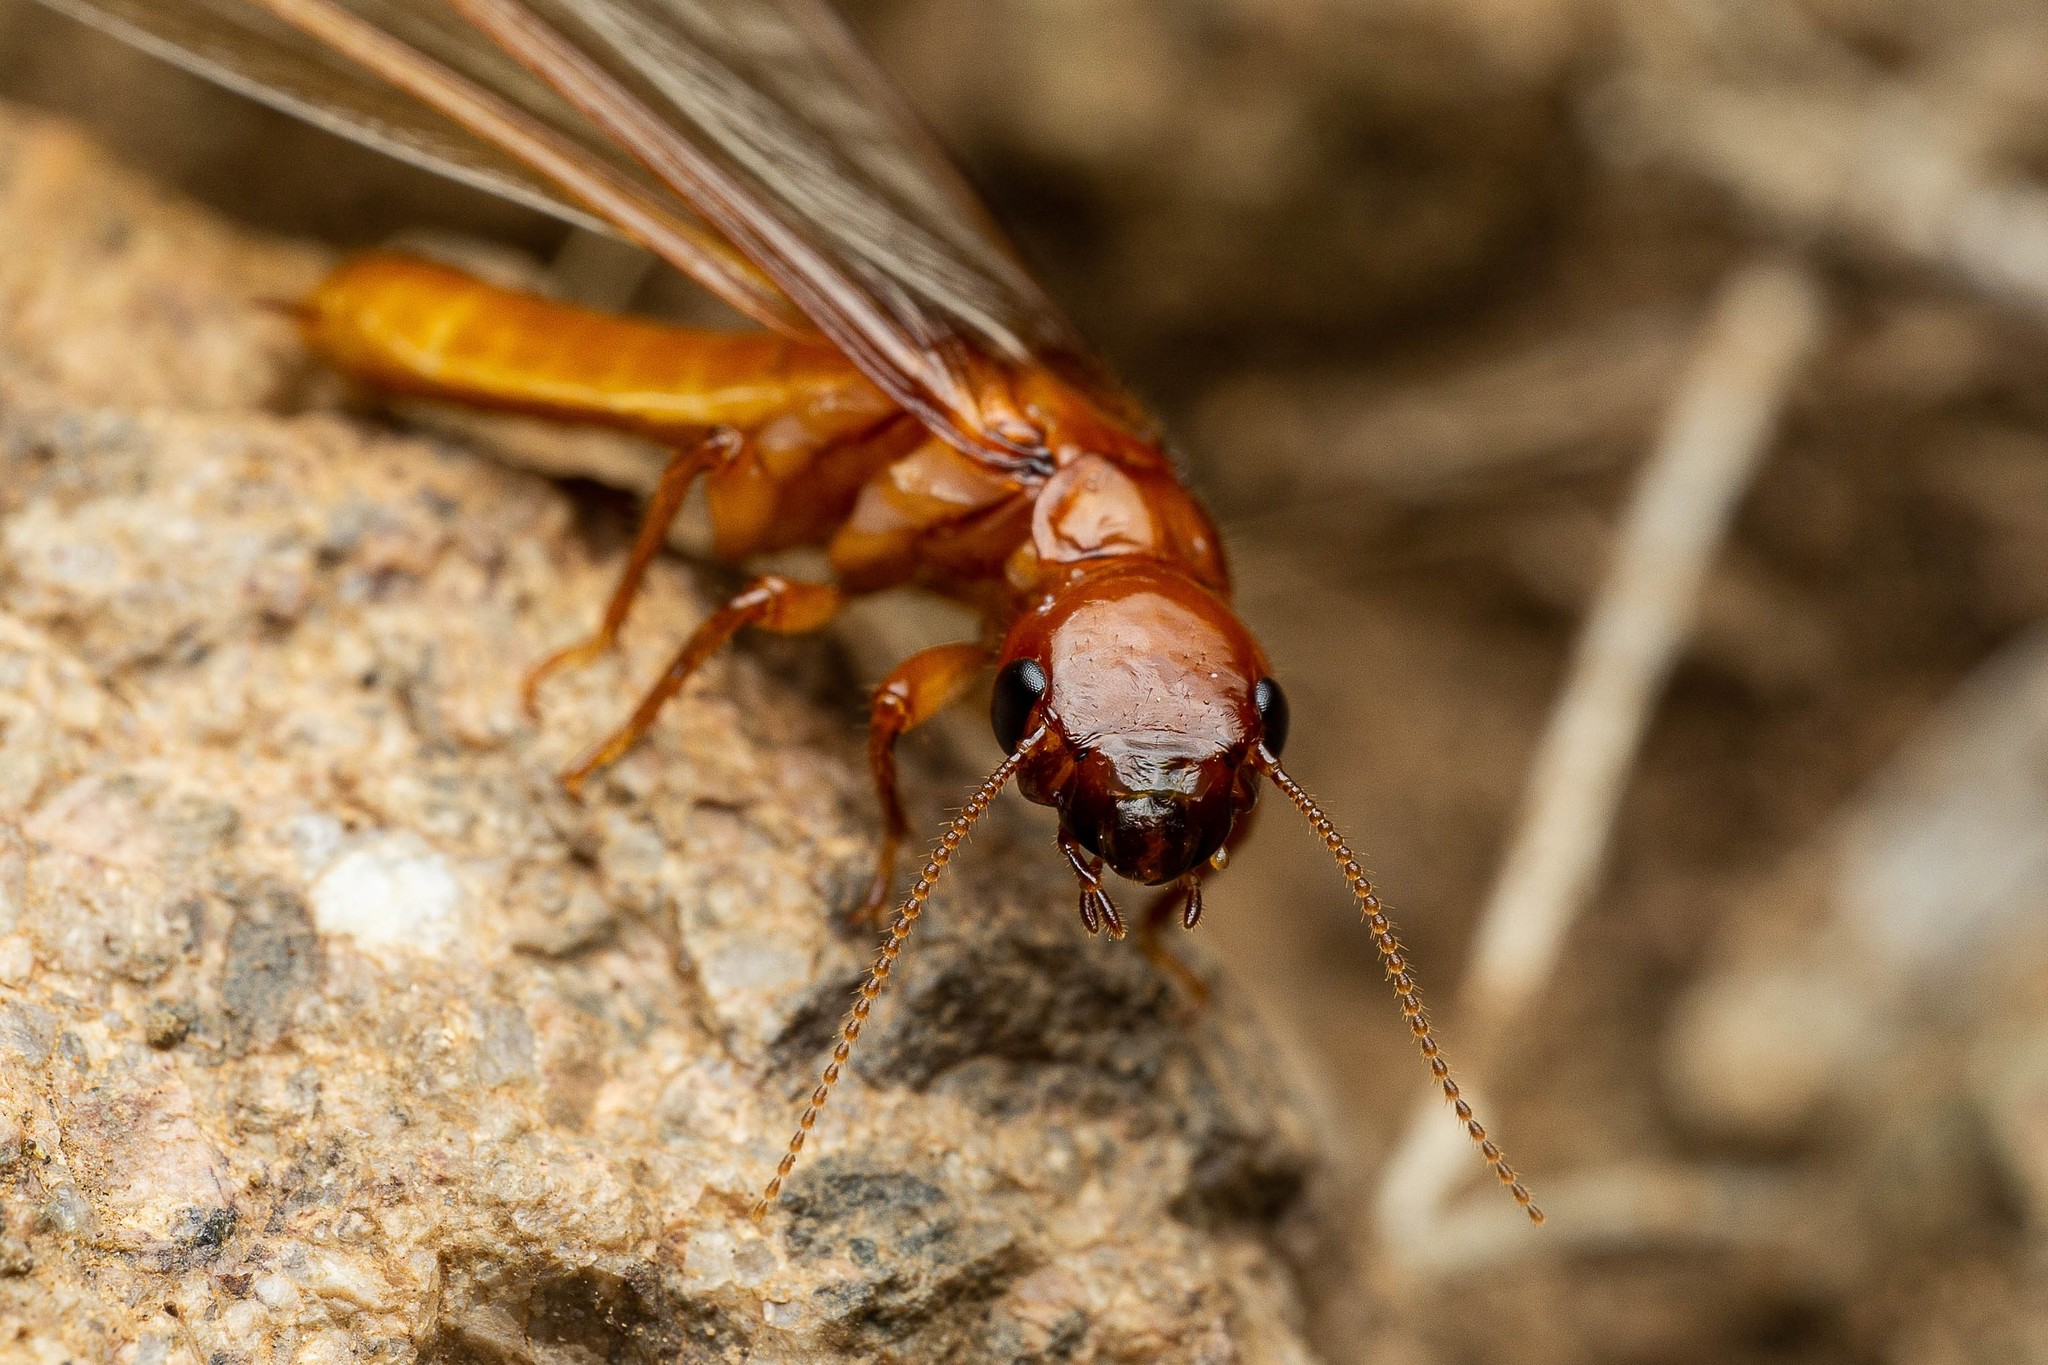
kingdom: Animalia
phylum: Arthropoda
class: Insecta
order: Blattodea
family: Archotermopsidae
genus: Zootermopsis
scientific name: Zootermopsis laticeps
